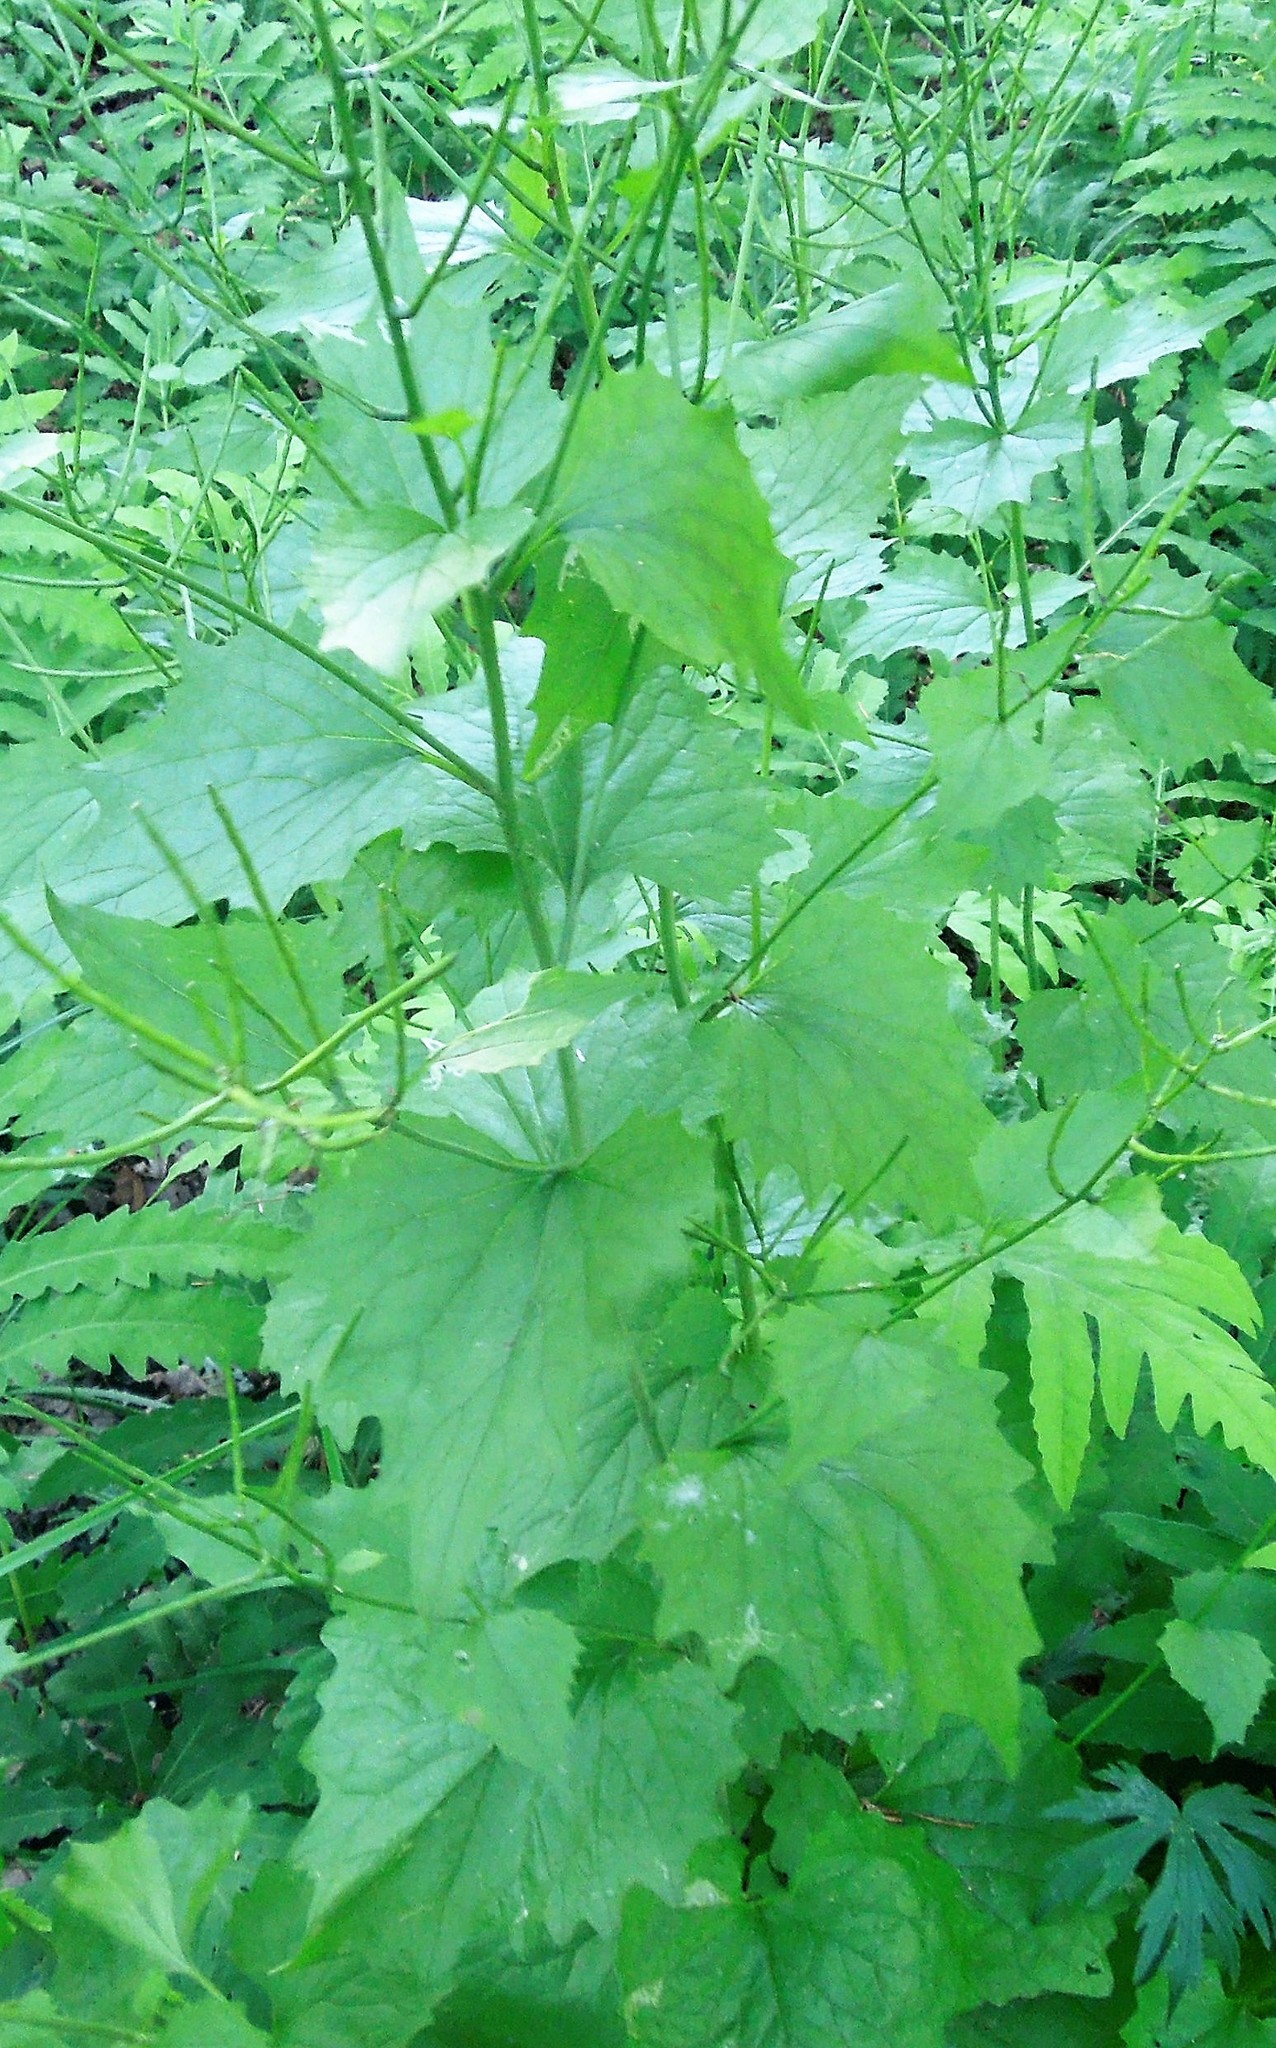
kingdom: Plantae
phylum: Tracheophyta
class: Magnoliopsida
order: Brassicales
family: Brassicaceae
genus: Alliaria
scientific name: Alliaria petiolata
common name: Garlic mustard
